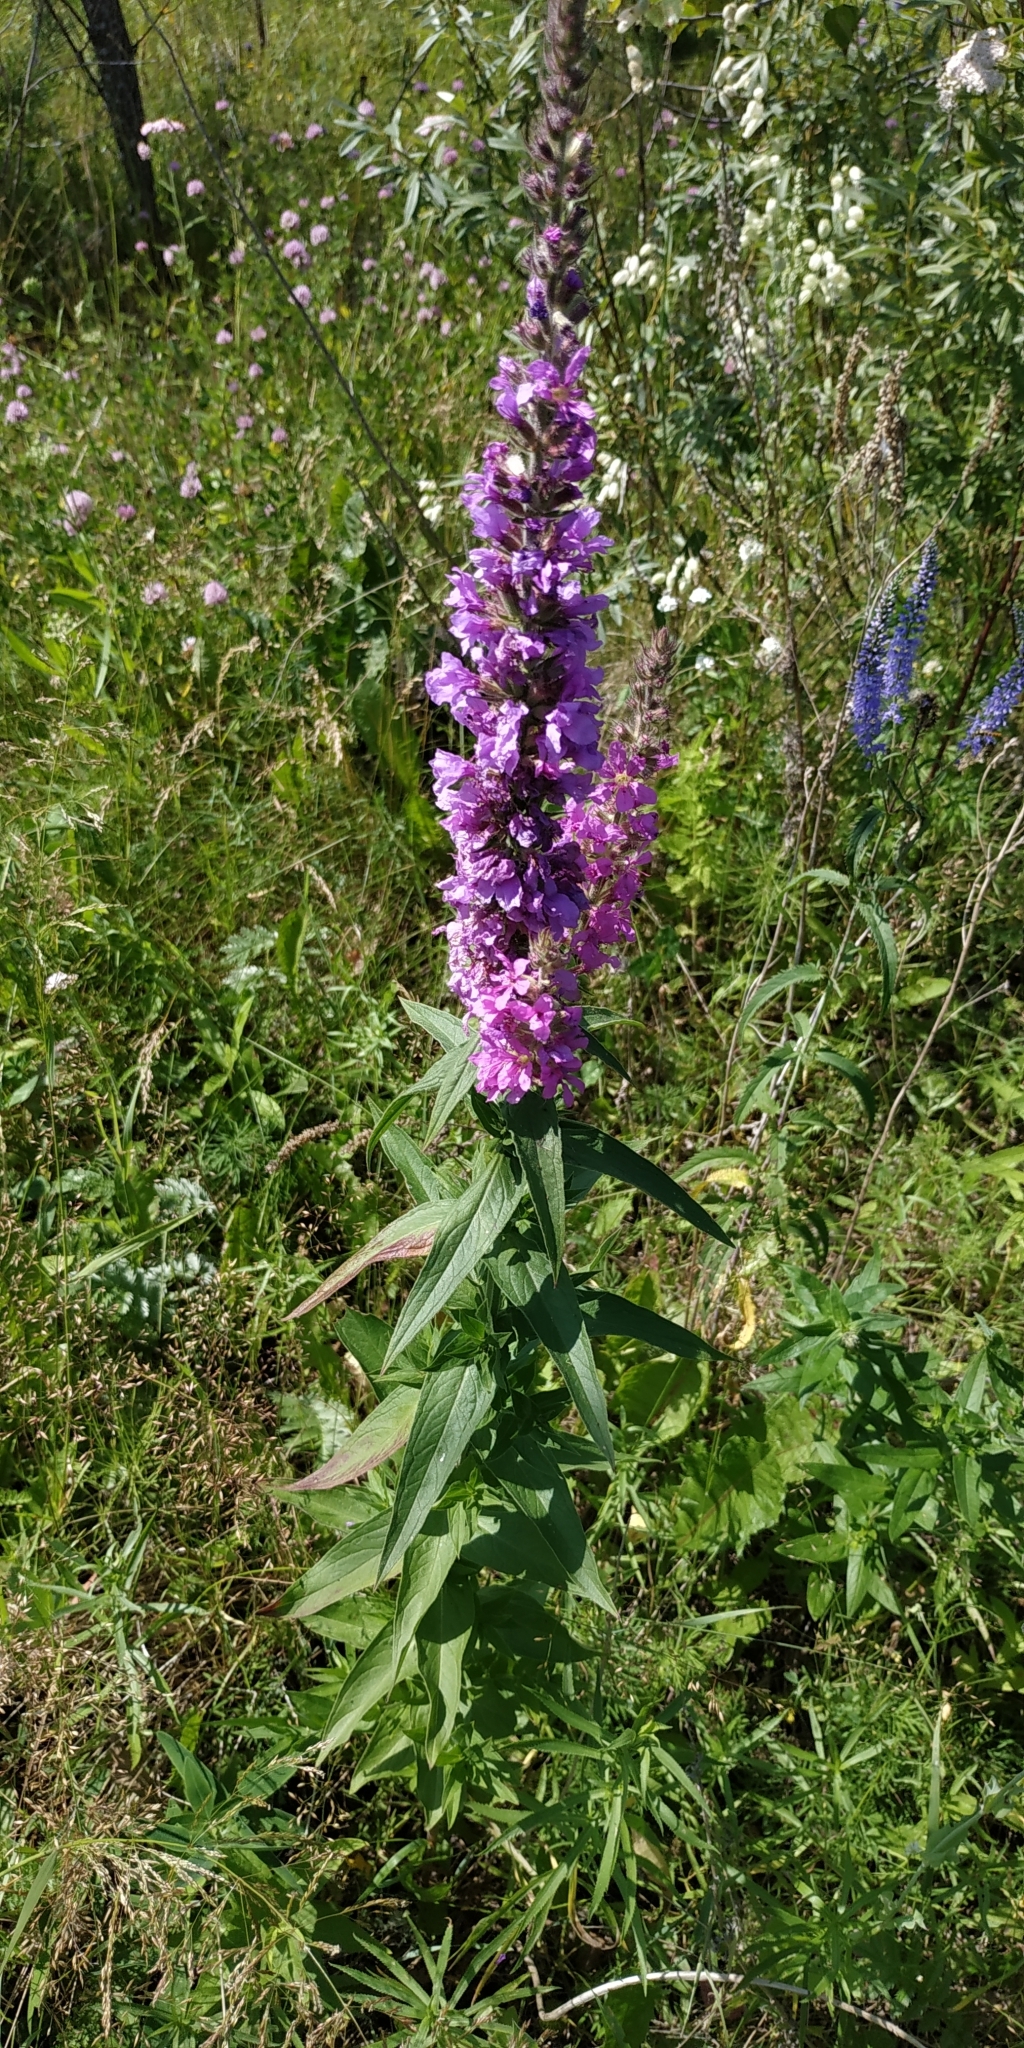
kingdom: Plantae
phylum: Tracheophyta
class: Magnoliopsida
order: Myrtales
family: Lythraceae
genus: Lythrum
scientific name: Lythrum salicaria
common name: Purple loosestrife
